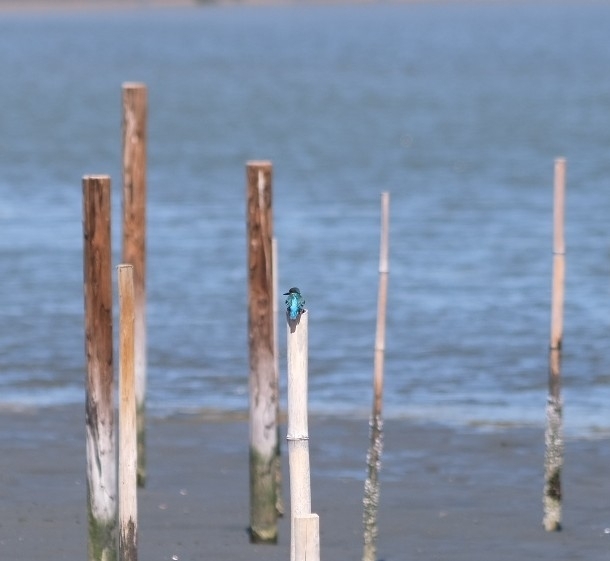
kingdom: Animalia
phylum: Chordata
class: Aves
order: Coraciiformes
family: Alcedinidae
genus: Alcedo
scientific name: Alcedo atthis
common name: Common kingfisher
